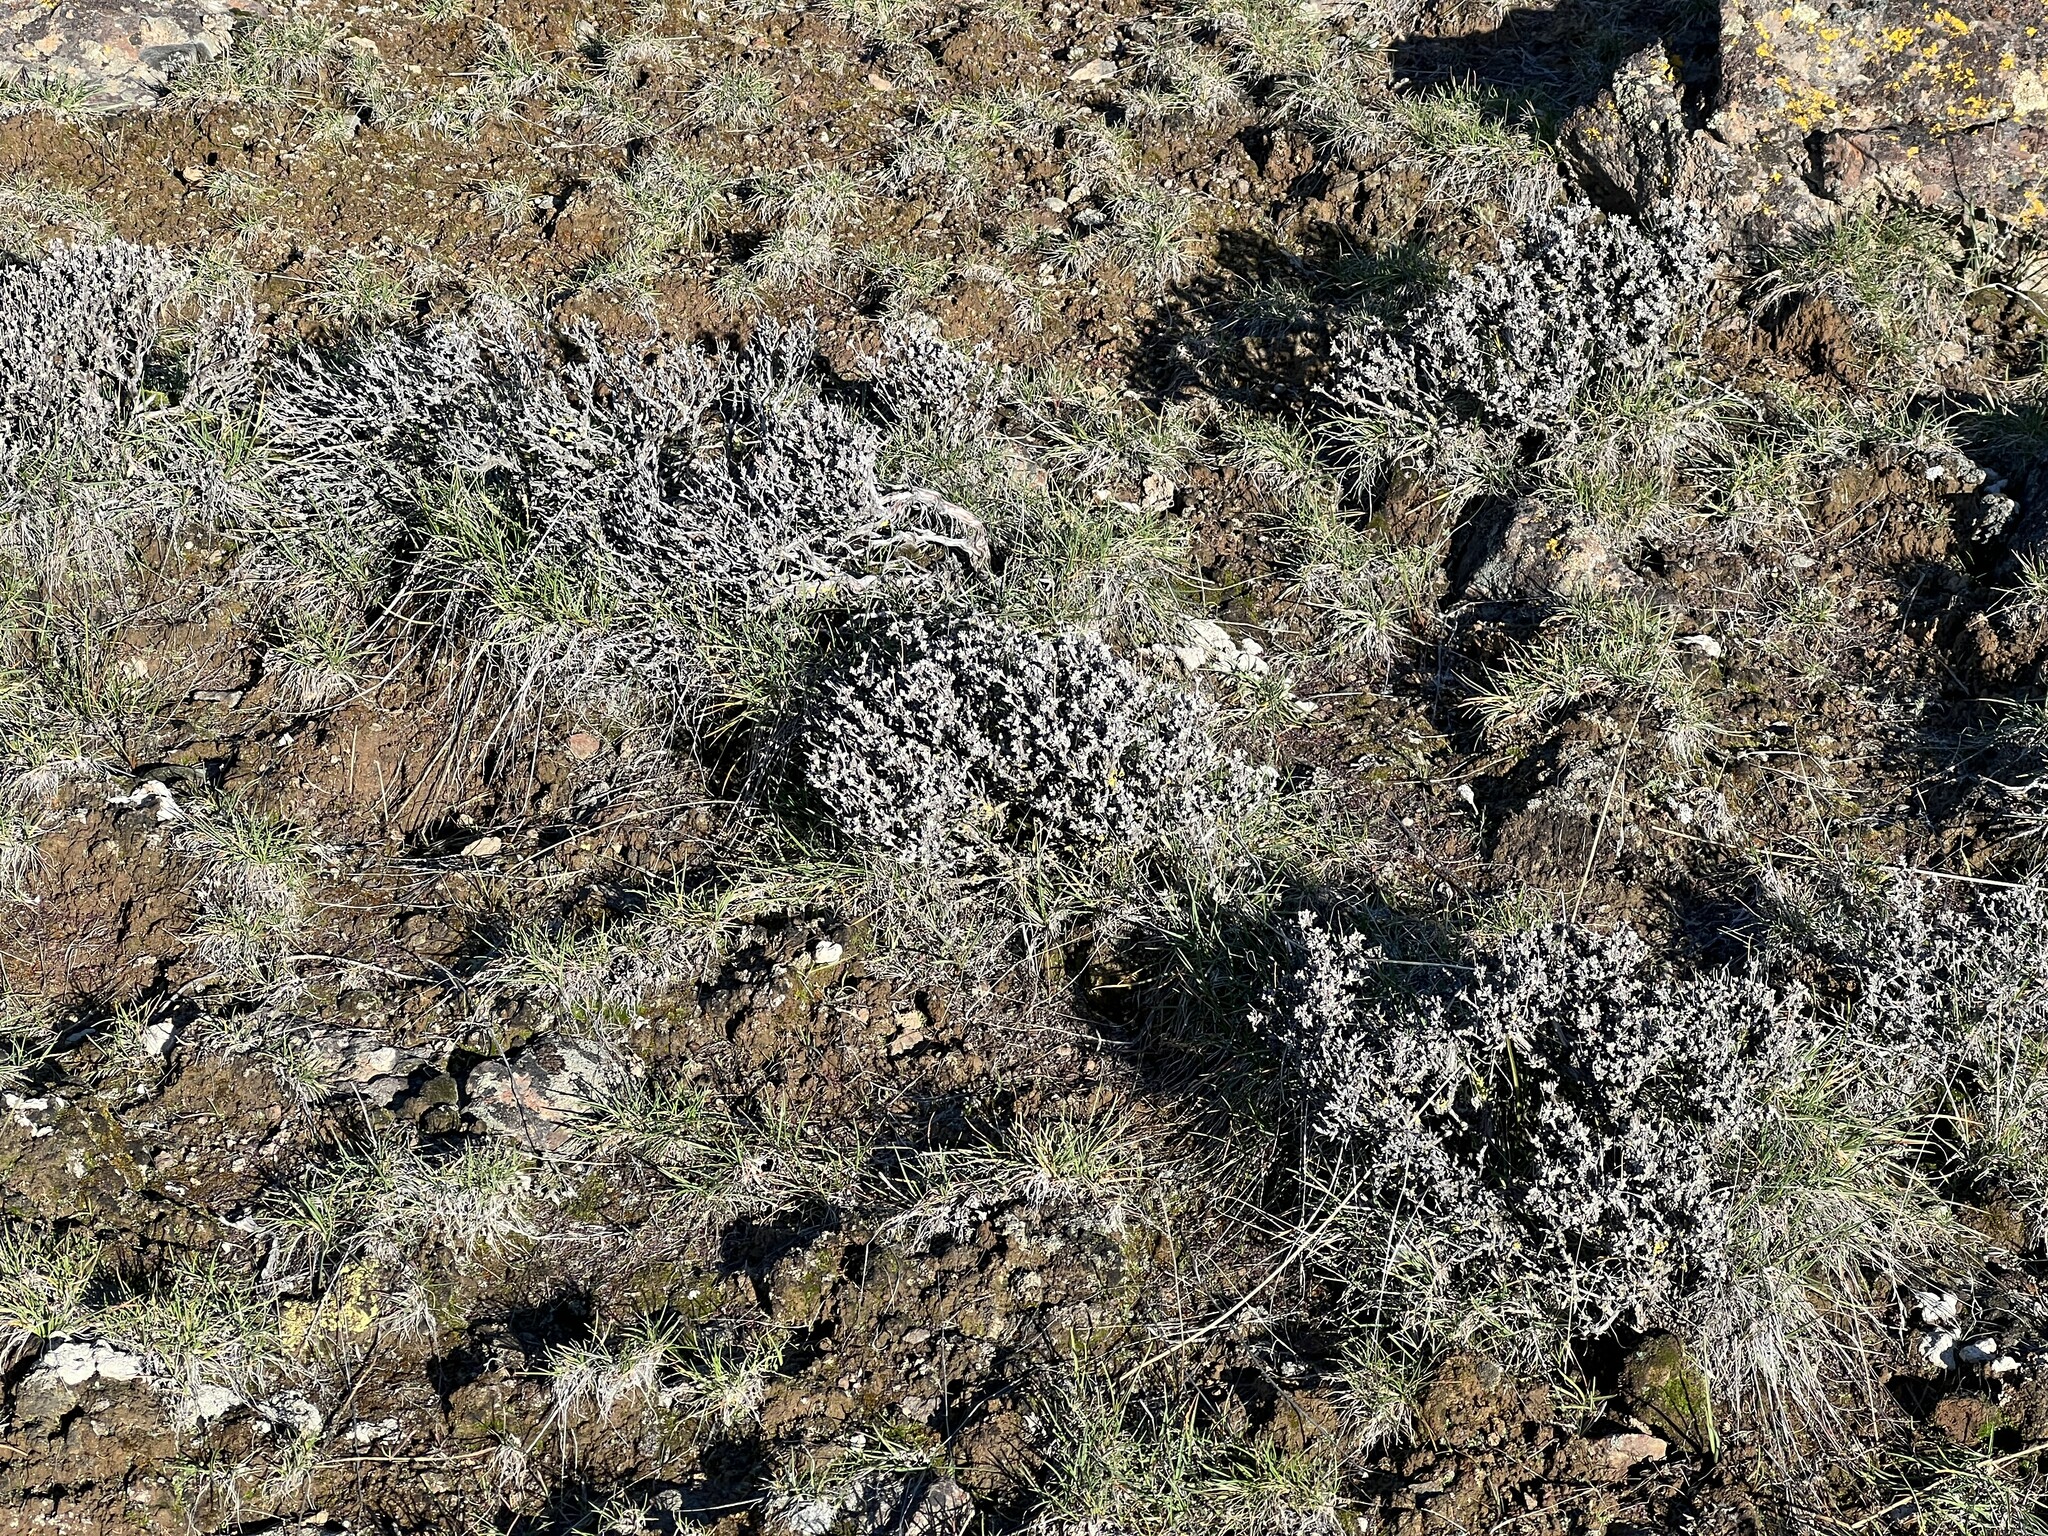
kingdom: Plantae
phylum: Tracheophyta
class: Magnoliopsida
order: Caryophyllales
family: Polygonaceae
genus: Eriogonum
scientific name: Eriogonum thymoides
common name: Thyme-leaf wild buckwheat
